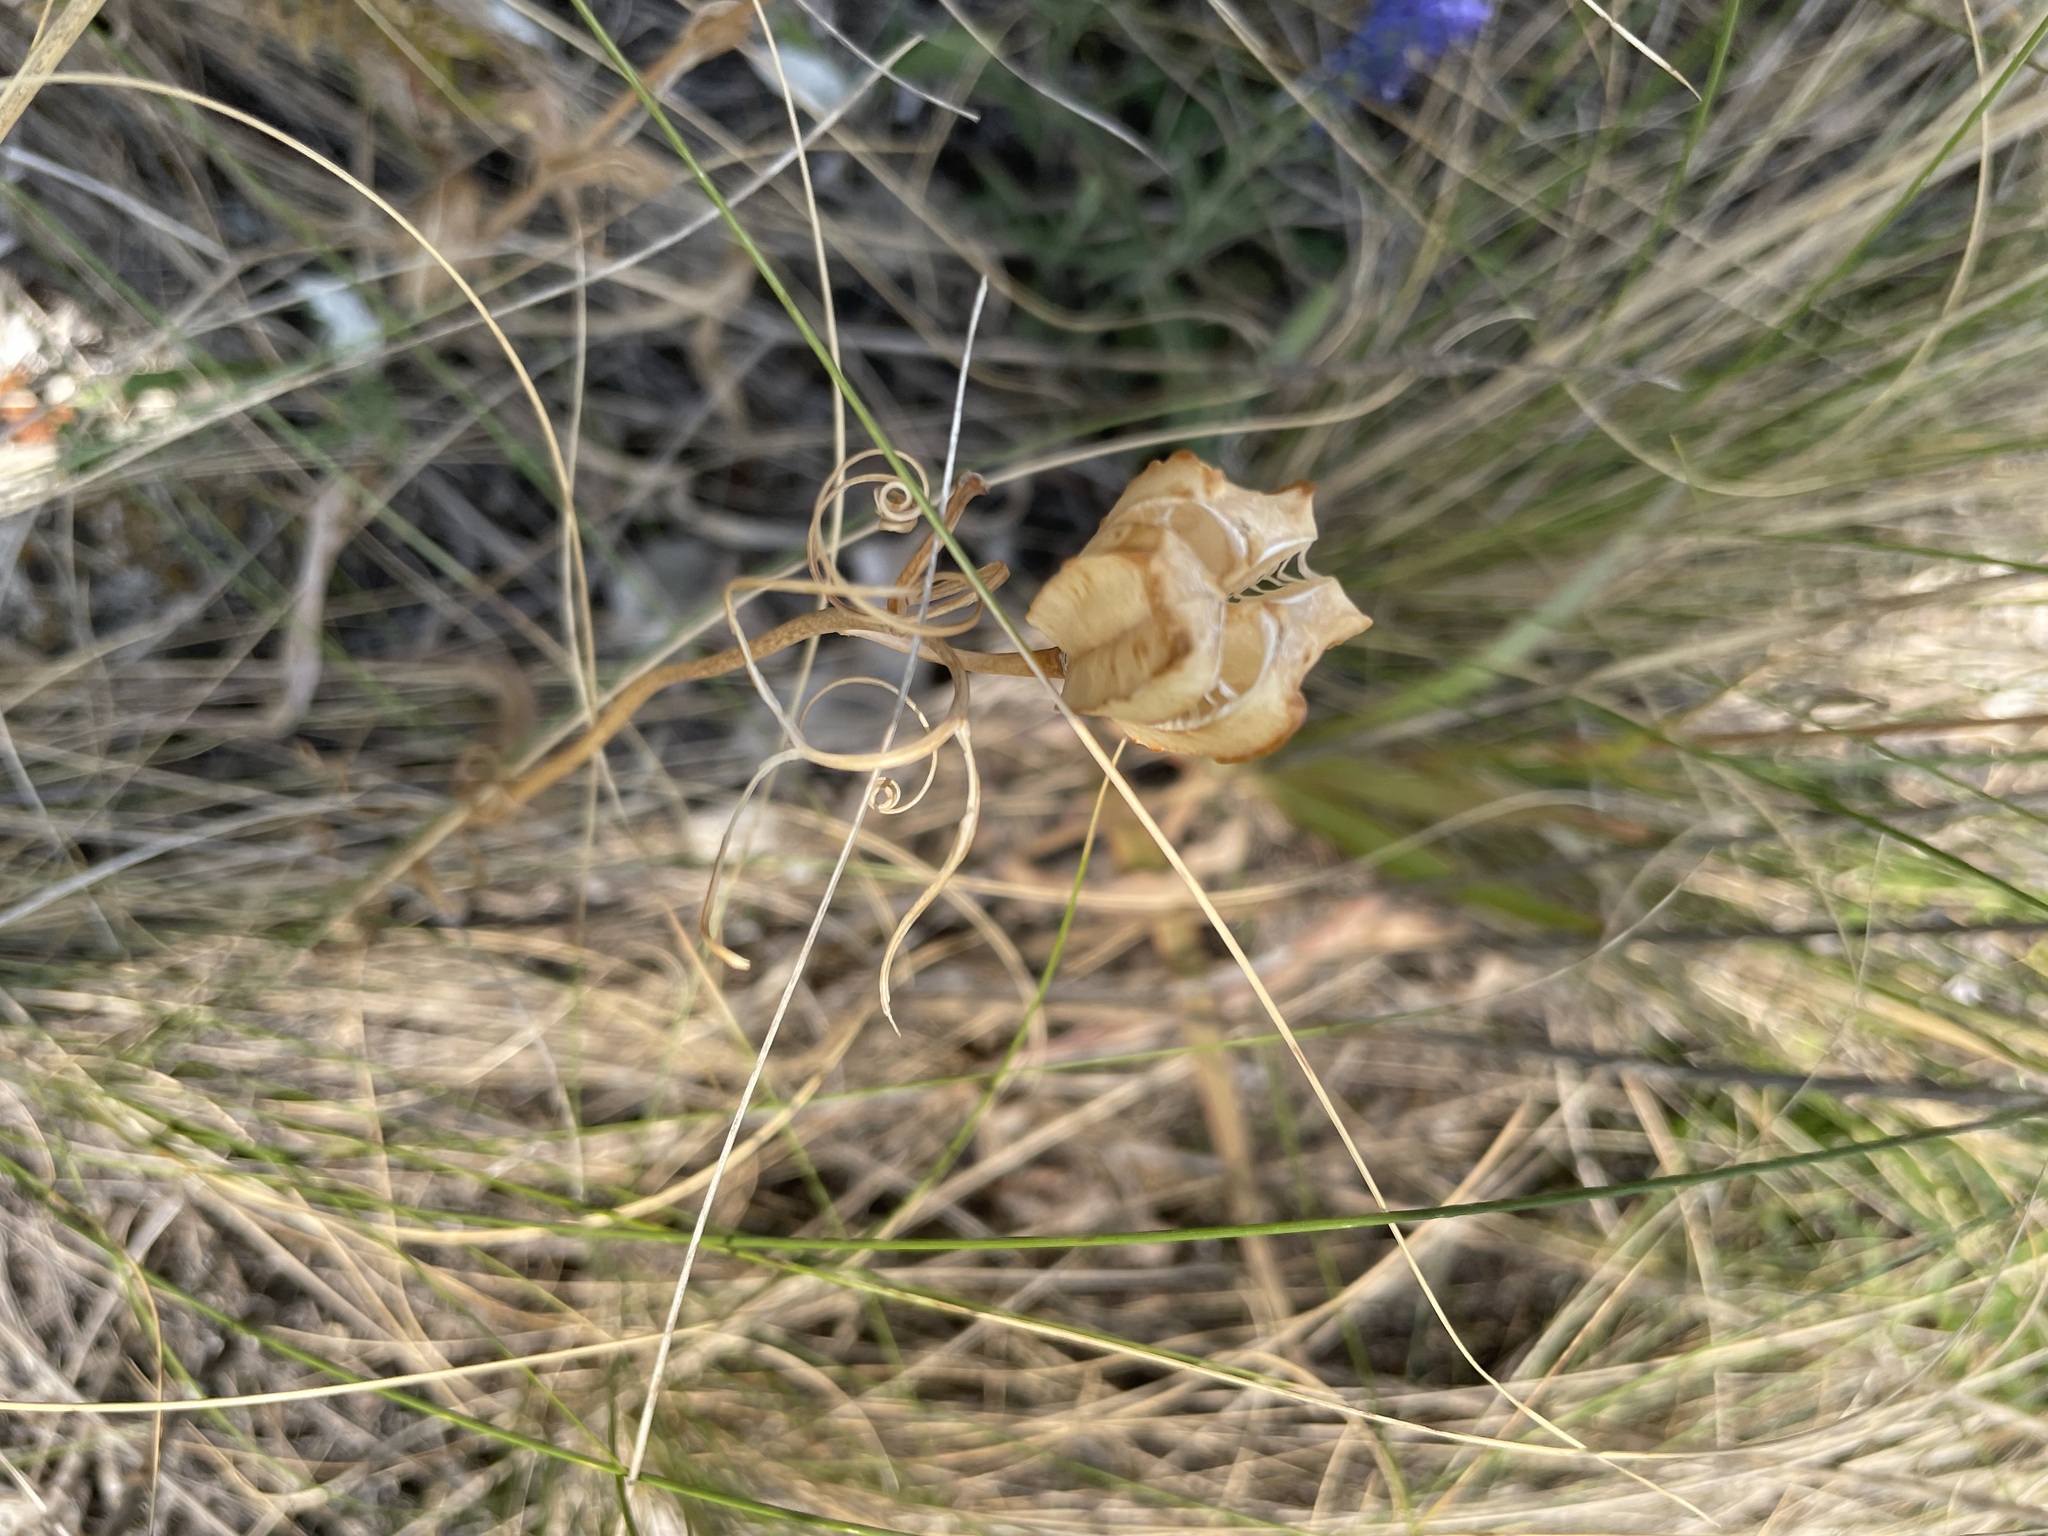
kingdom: Plantae
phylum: Tracheophyta
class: Liliopsida
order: Liliales
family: Liliaceae
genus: Fritillaria
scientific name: Fritillaria ruthenica
